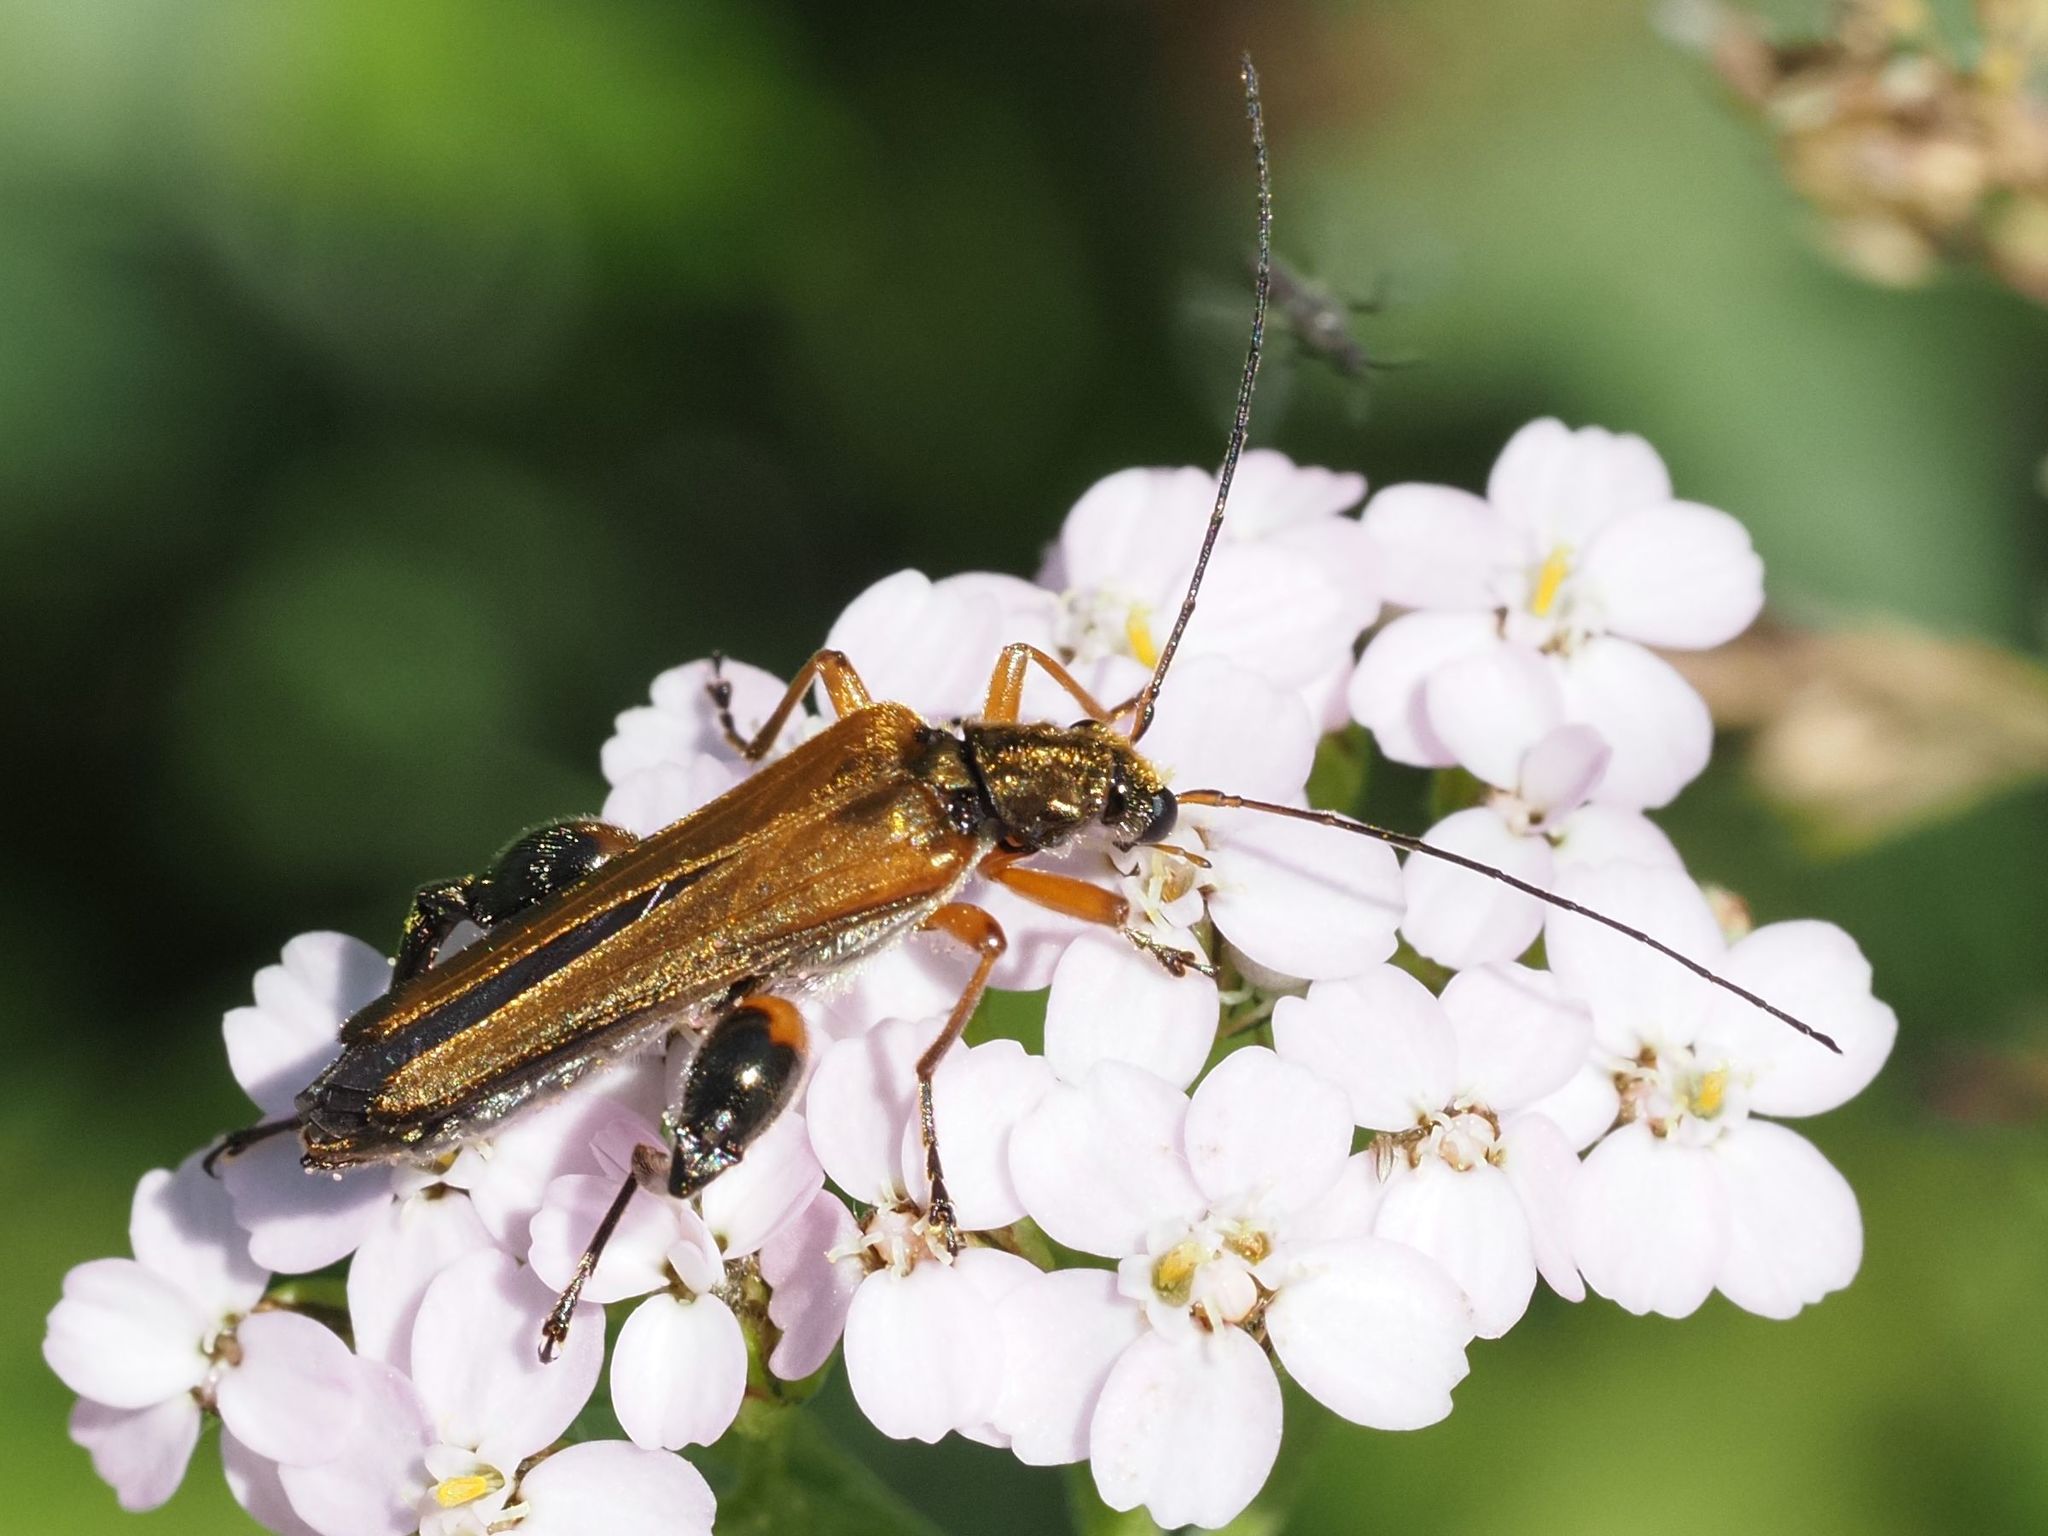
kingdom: Animalia
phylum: Arthropoda
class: Insecta
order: Coleoptera
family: Oedemeridae
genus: Oedemera
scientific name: Oedemera podagrariae
